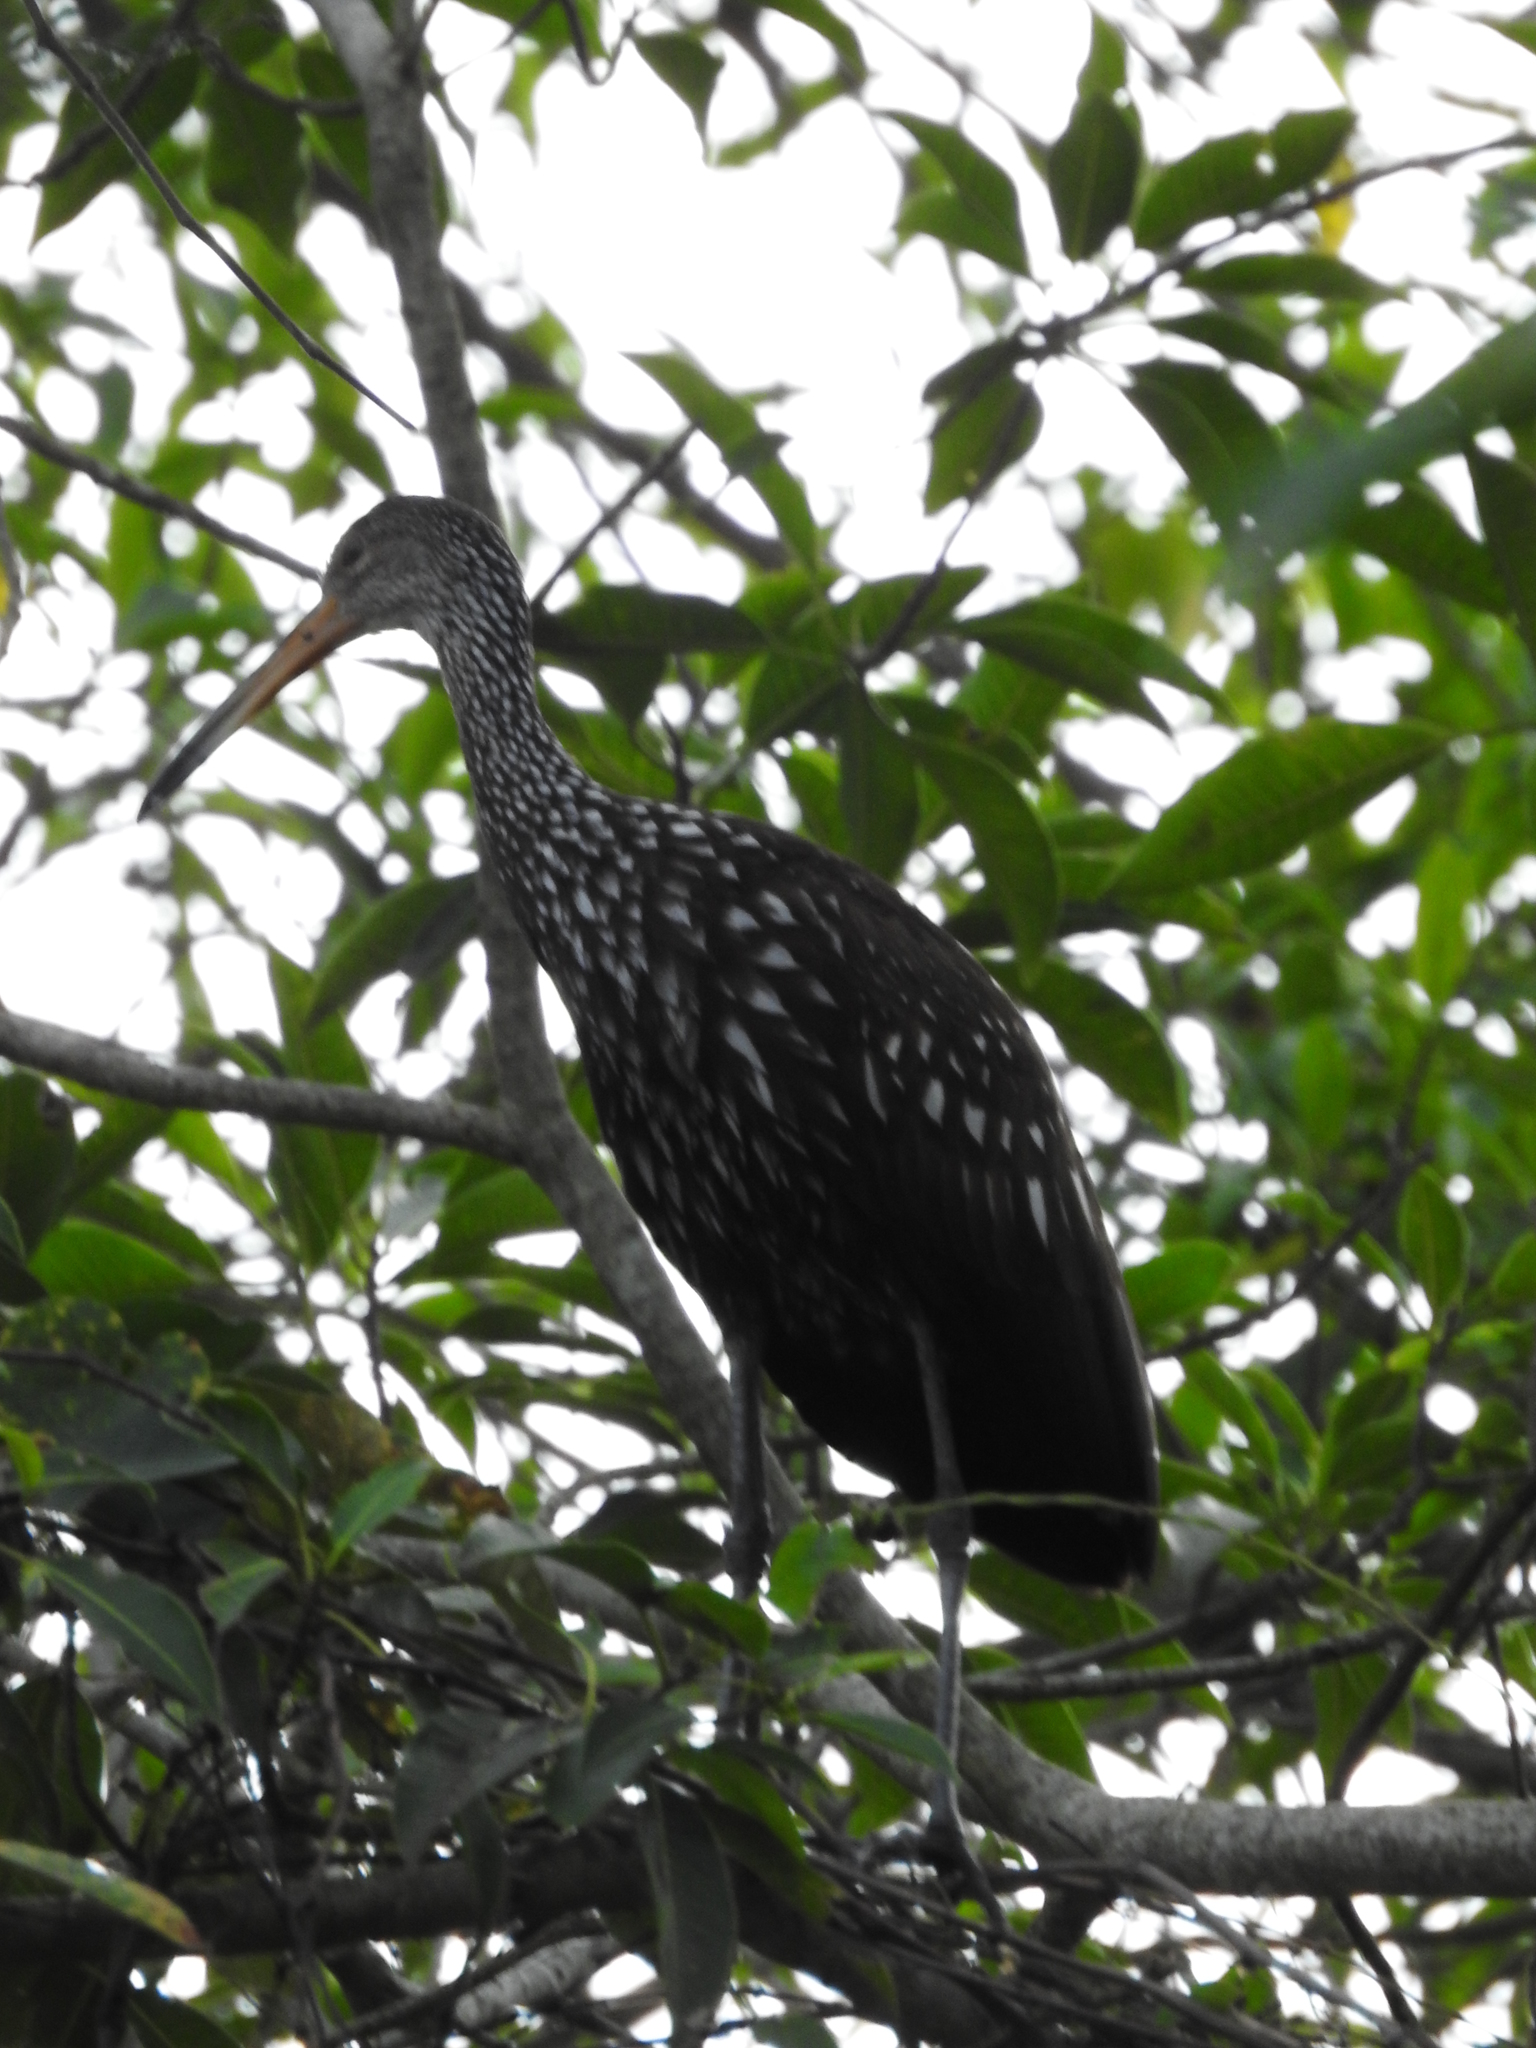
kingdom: Animalia
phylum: Chordata
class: Aves
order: Gruiformes
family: Aramidae
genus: Aramus
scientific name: Aramus guarauna
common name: Limpkin
